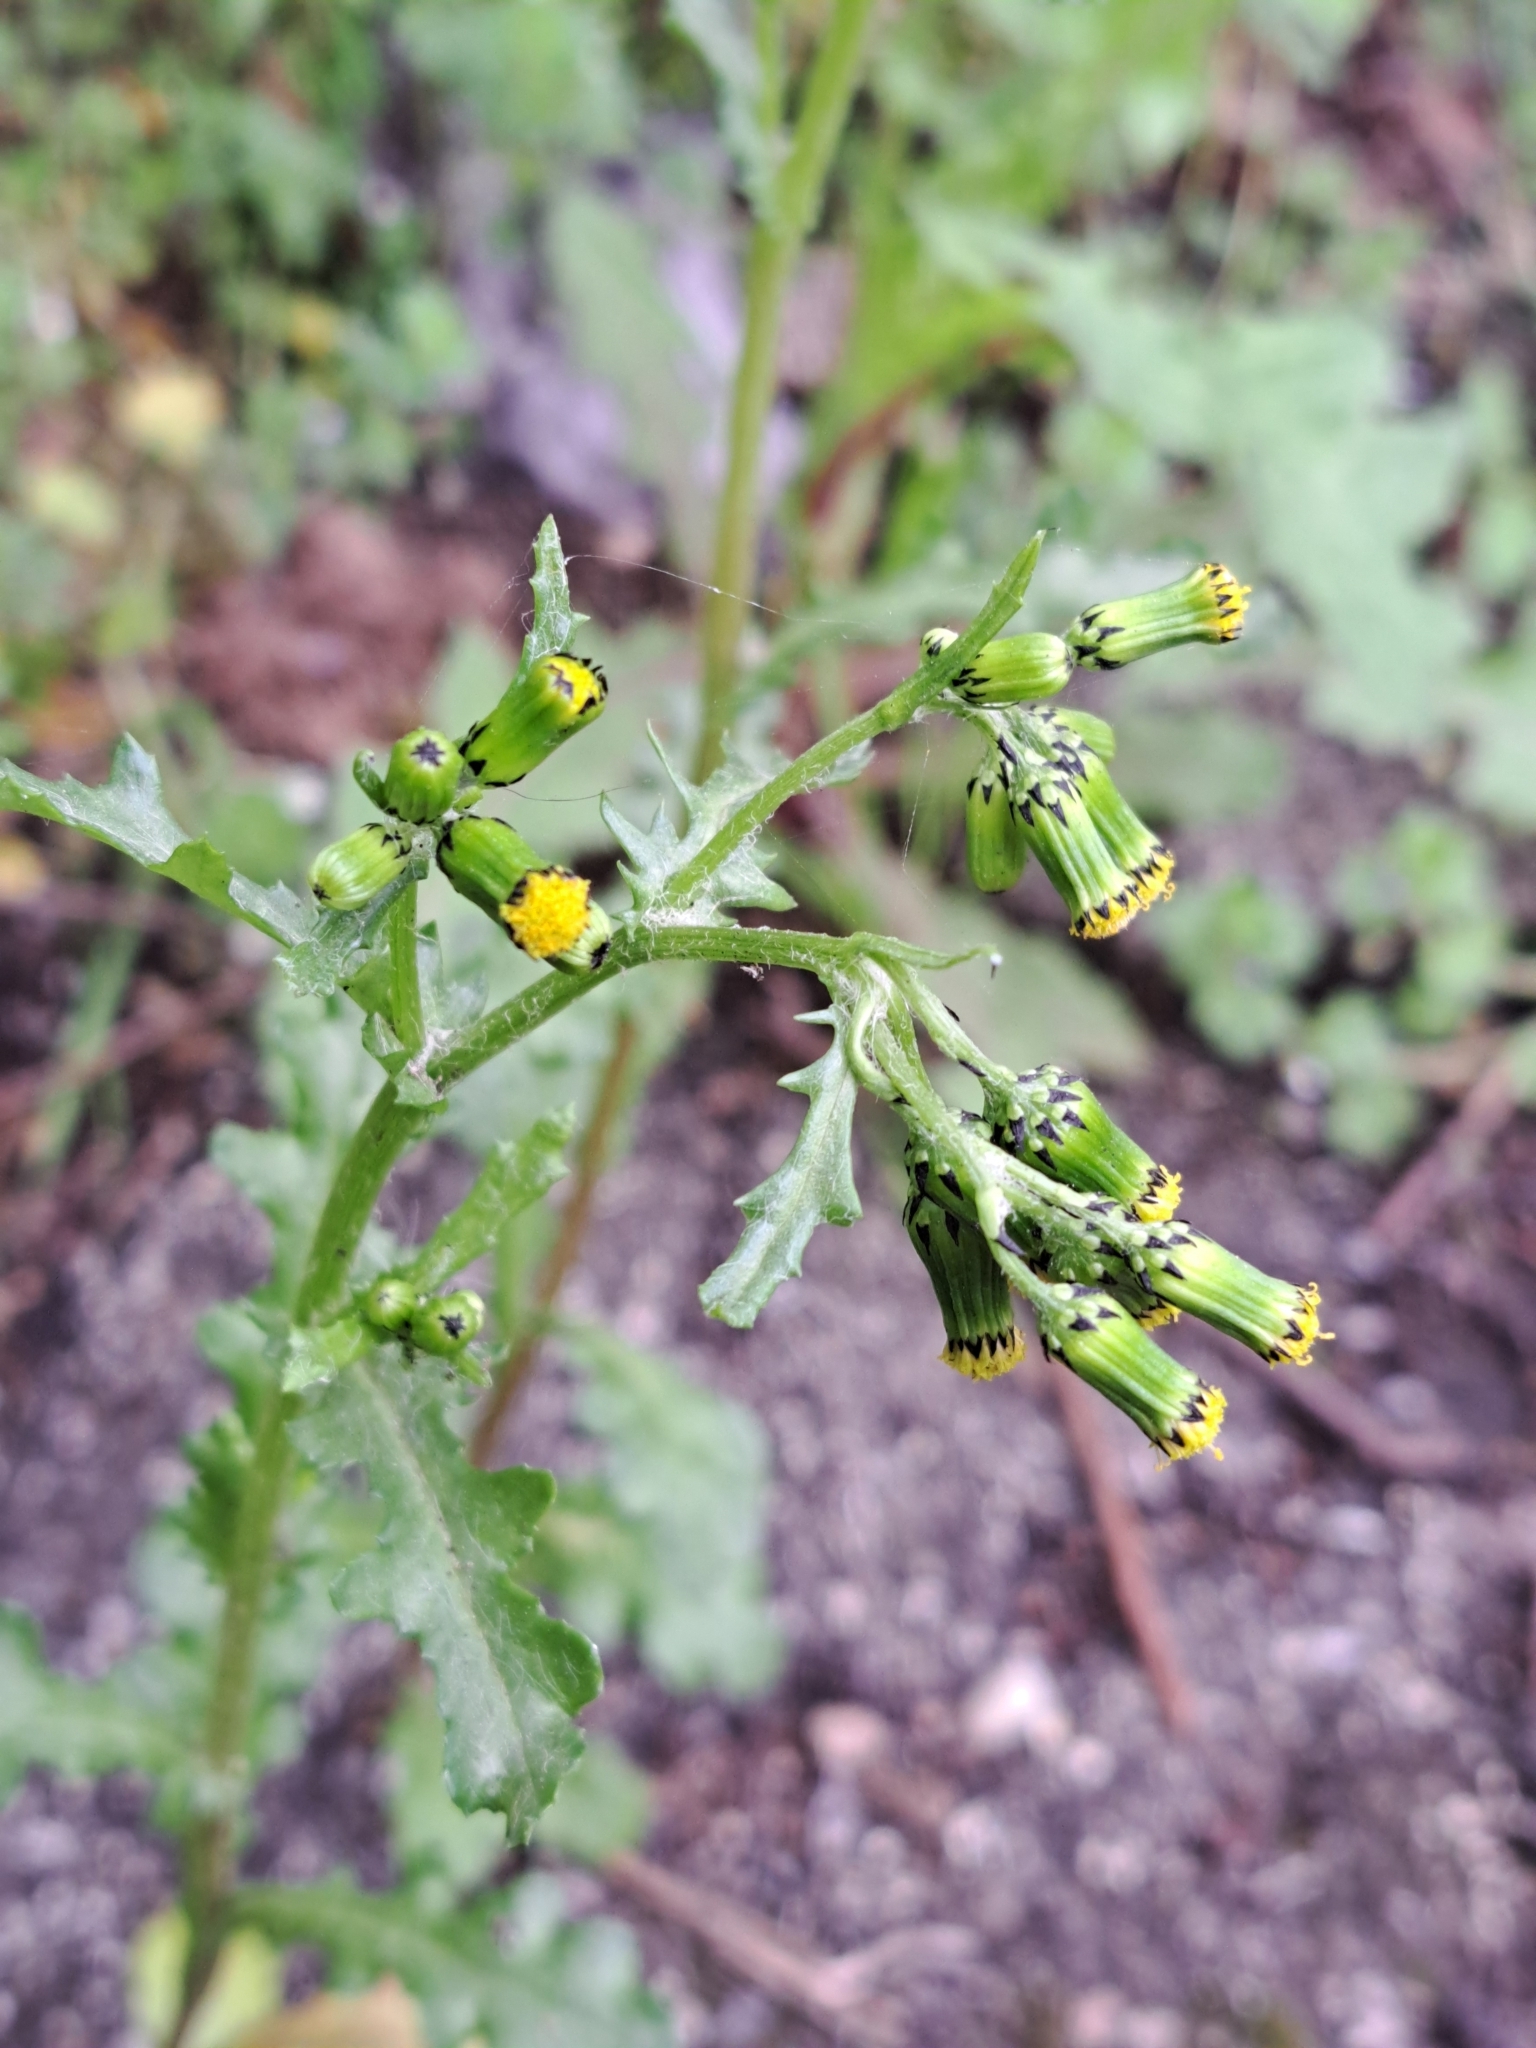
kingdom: Plantae
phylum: Tracheophyta
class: Magnoliopsida
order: Asterales
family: Asteraceae
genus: Senecio
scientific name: Senecio vulgaris
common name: Old-man-in-the-spring
